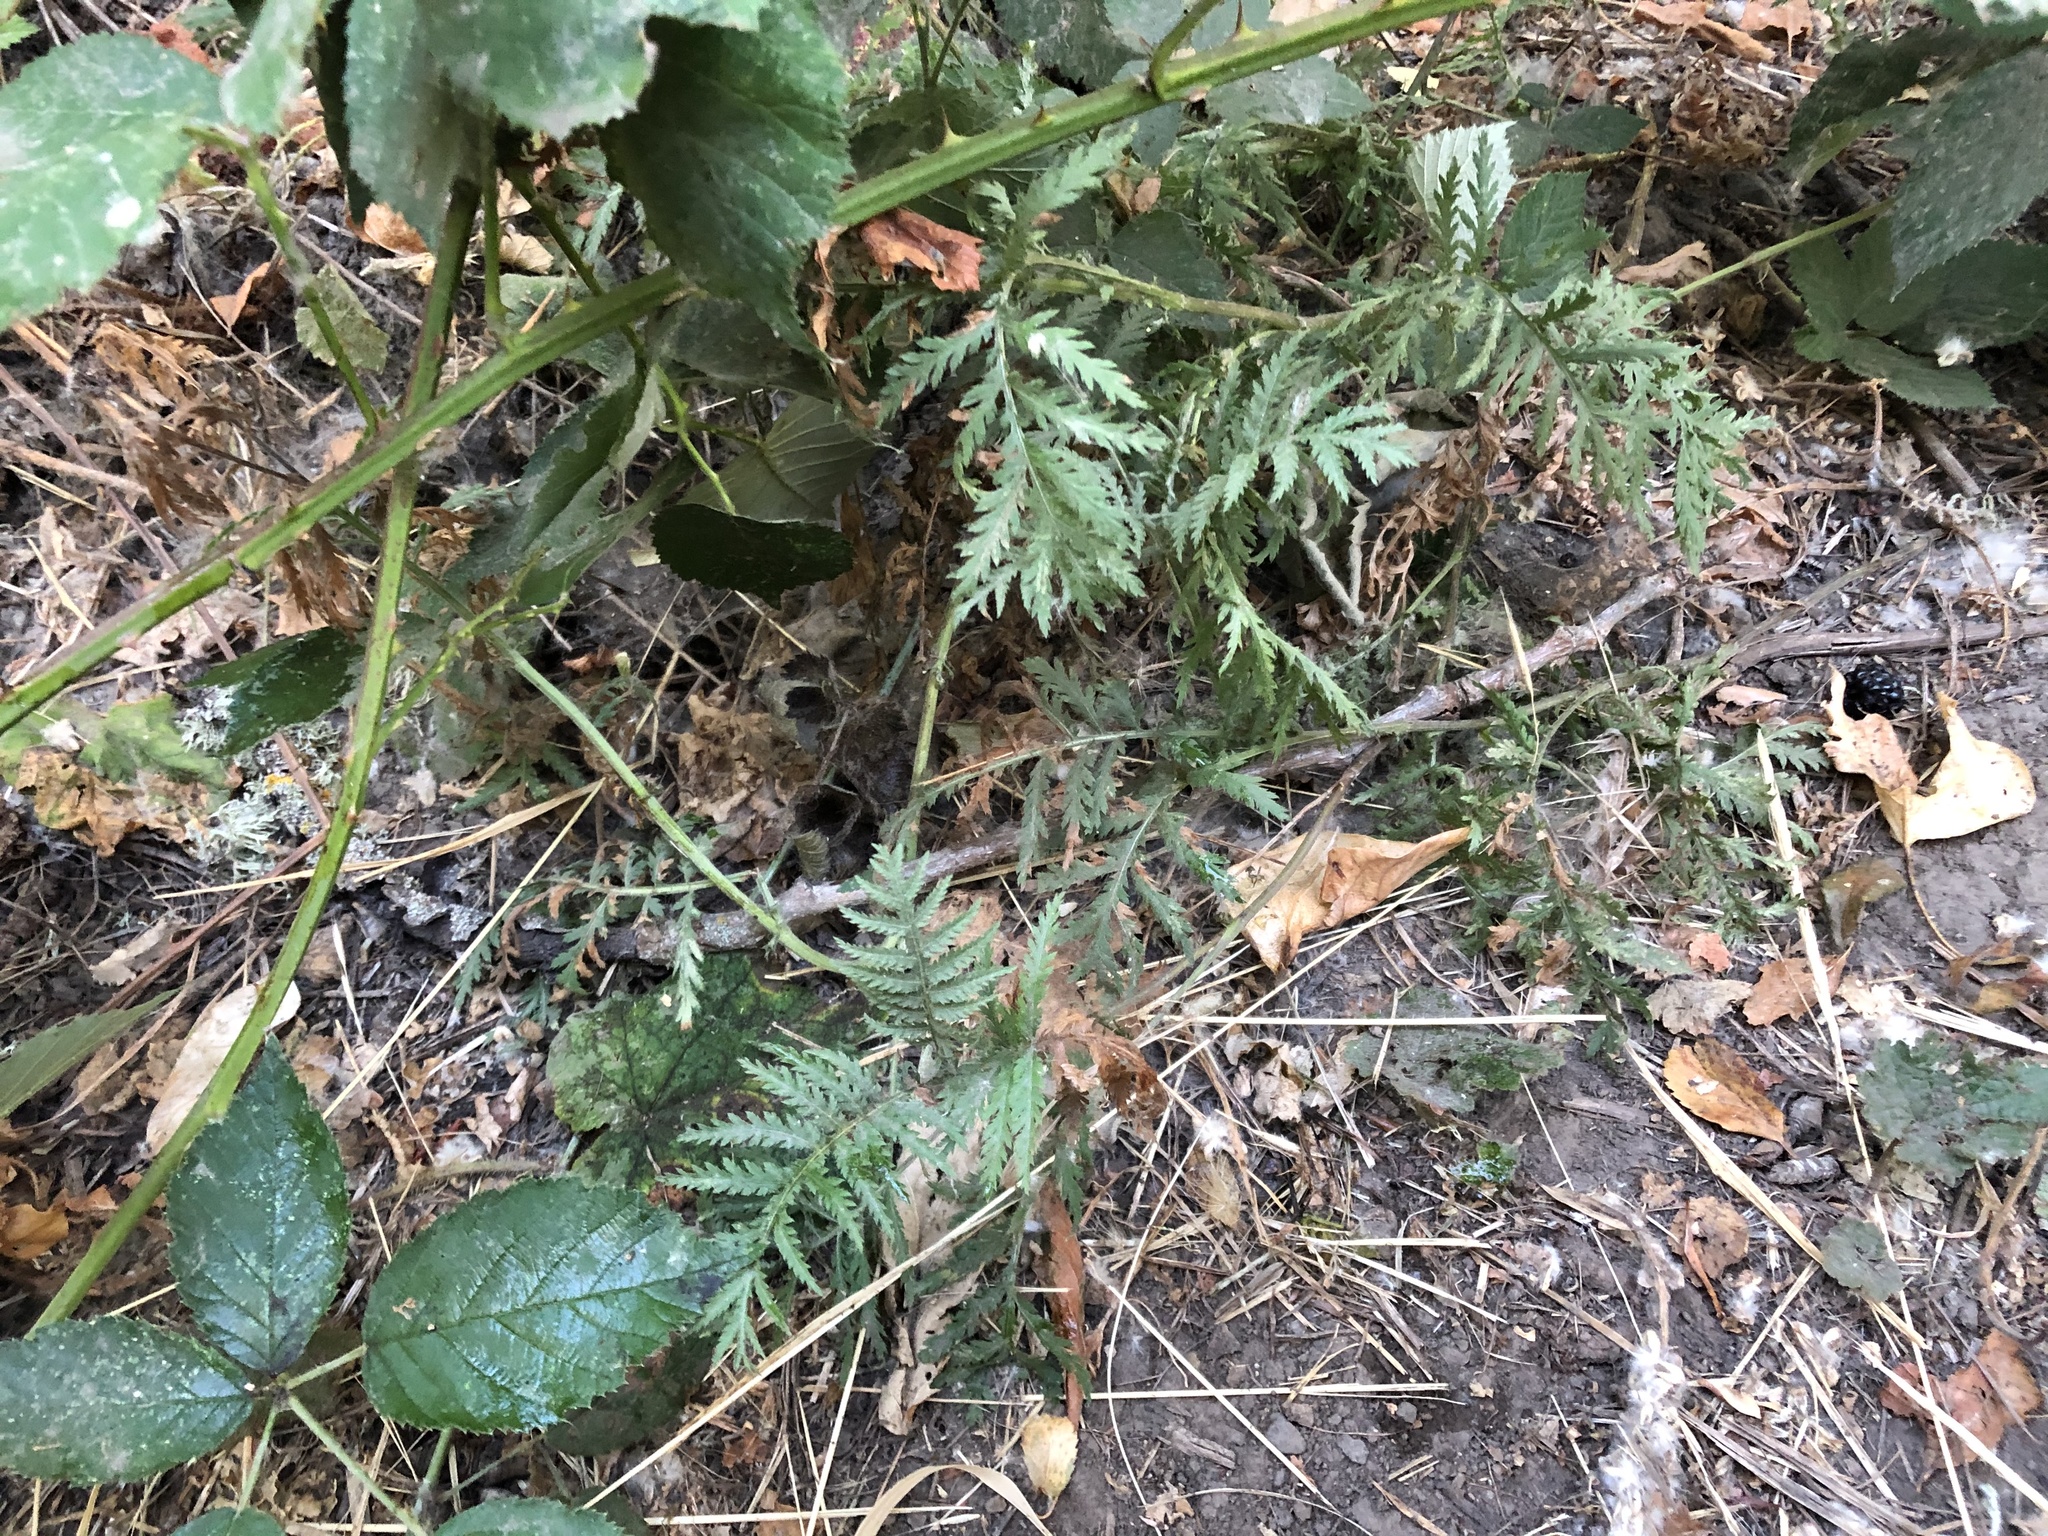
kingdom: Plantae
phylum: Tracheophyta
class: Magnoliopsida
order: Asterales
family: Asteraceae
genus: Tanacetum
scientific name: Tanacetum vulgare
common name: Common tansy
